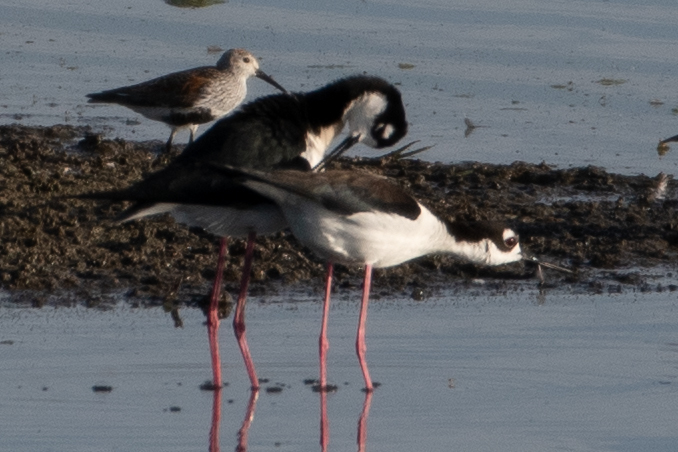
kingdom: Animalia
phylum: Chordata
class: Aves
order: Charadriiformes
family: Recurvirostridae
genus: Himantopus
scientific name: Himantopus mexicanus
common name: Black-necked stilt
